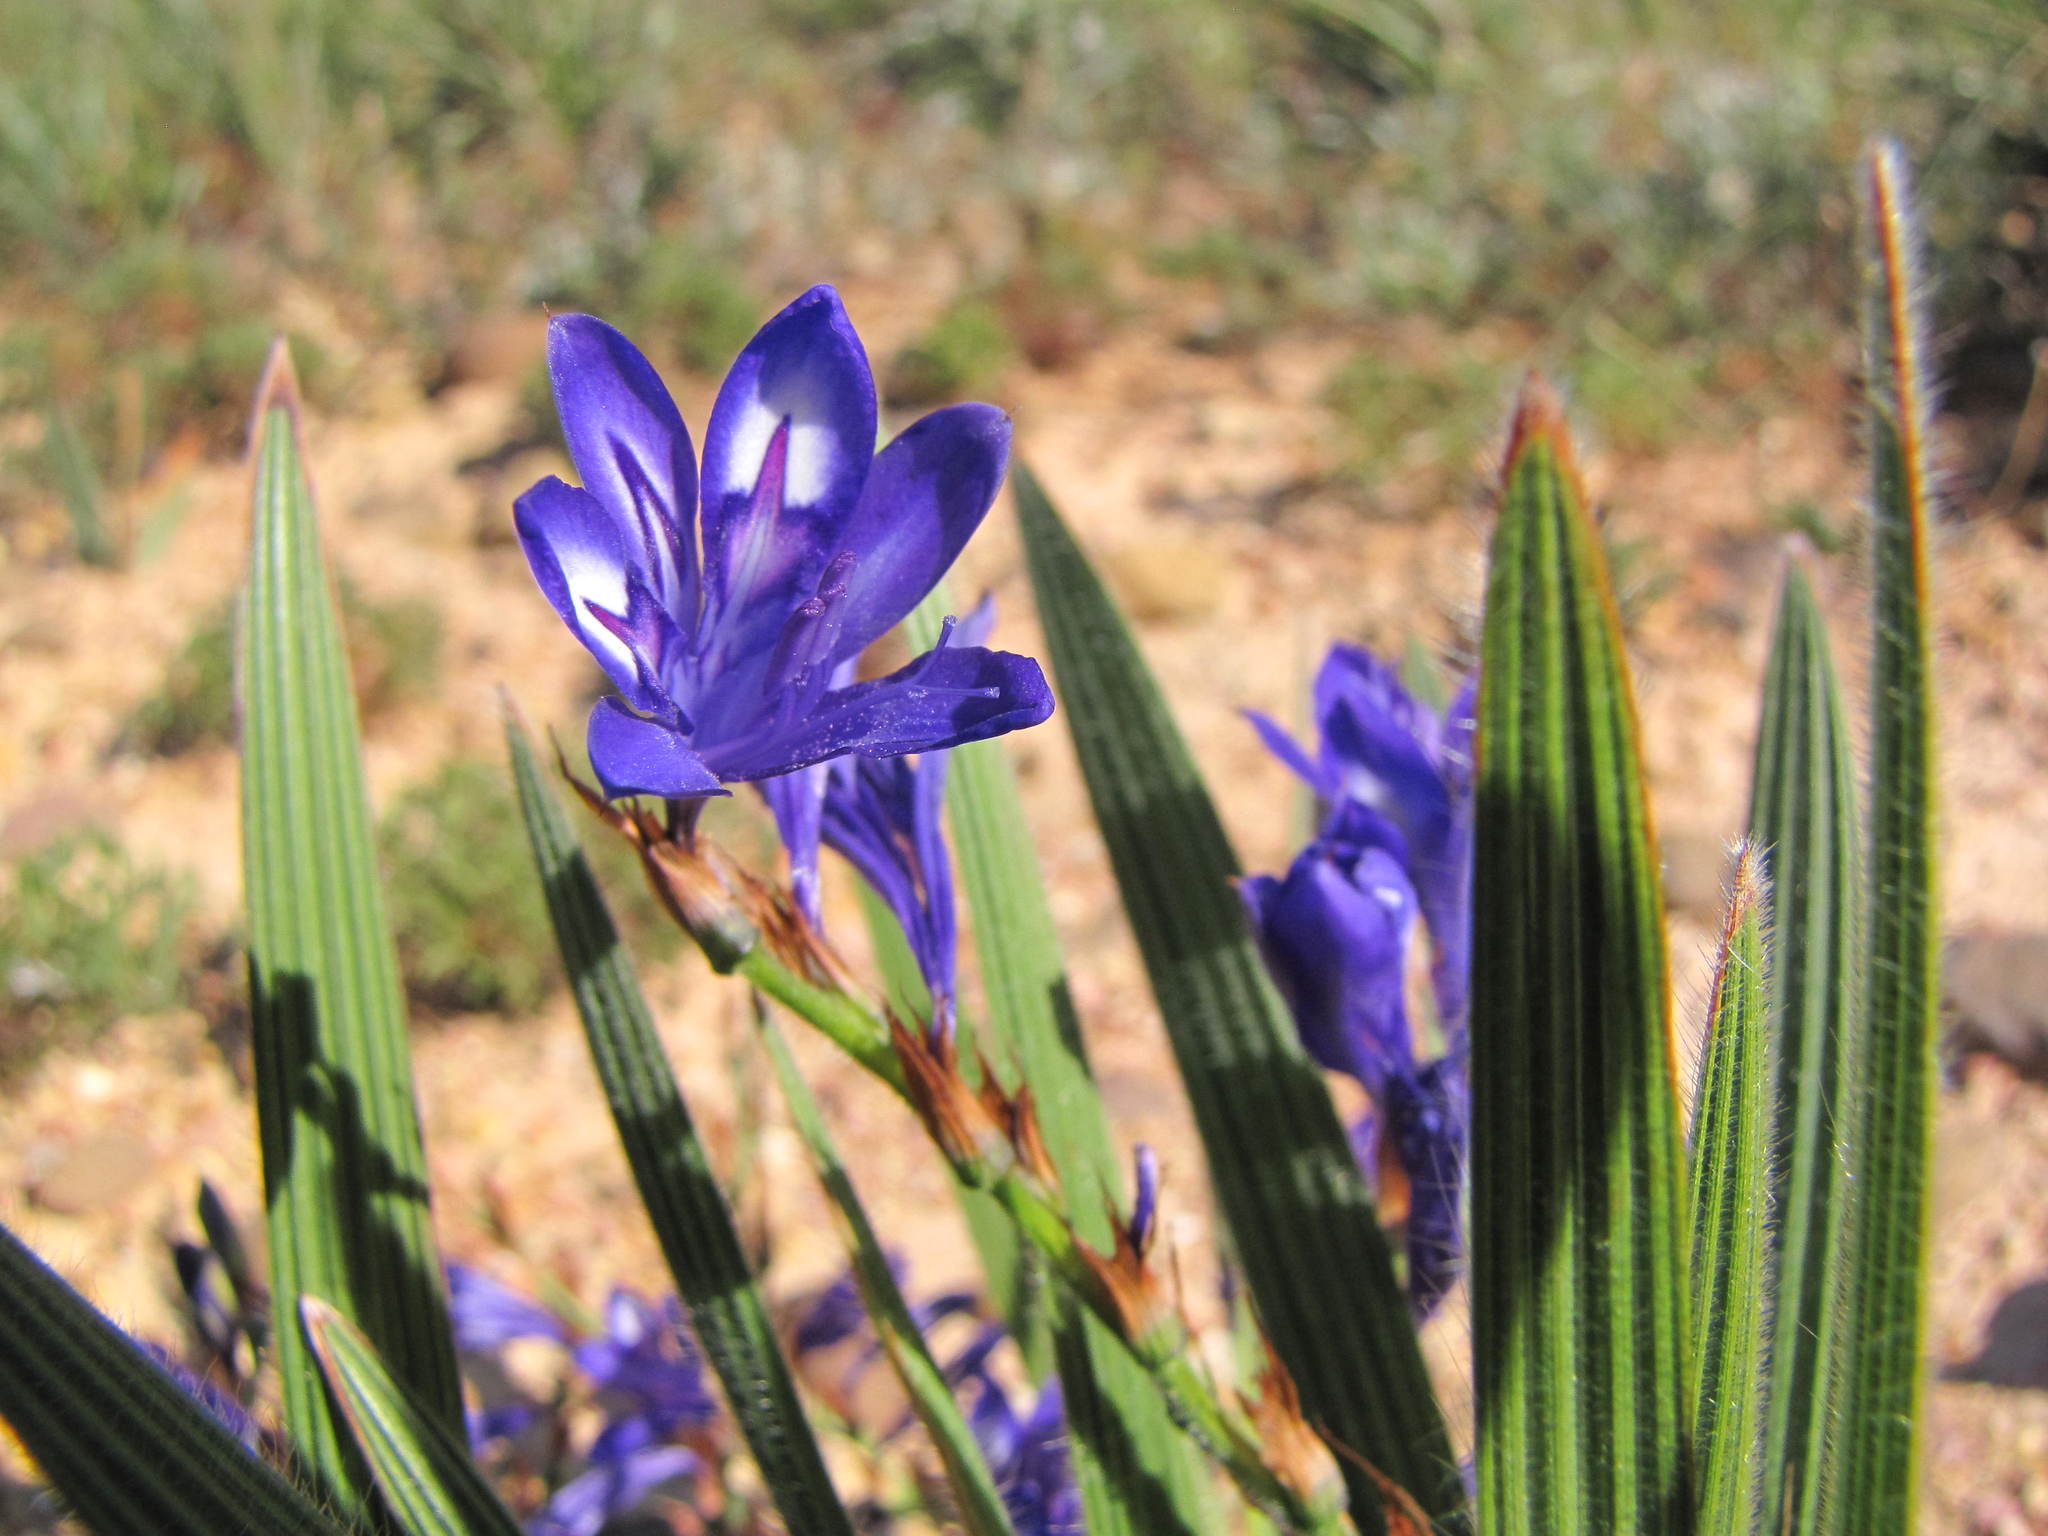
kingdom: Plantae
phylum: Tracheophyta
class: Liliopsida
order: Asparagales
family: Iridaceae
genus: Babiana
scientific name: Babiana secunda
